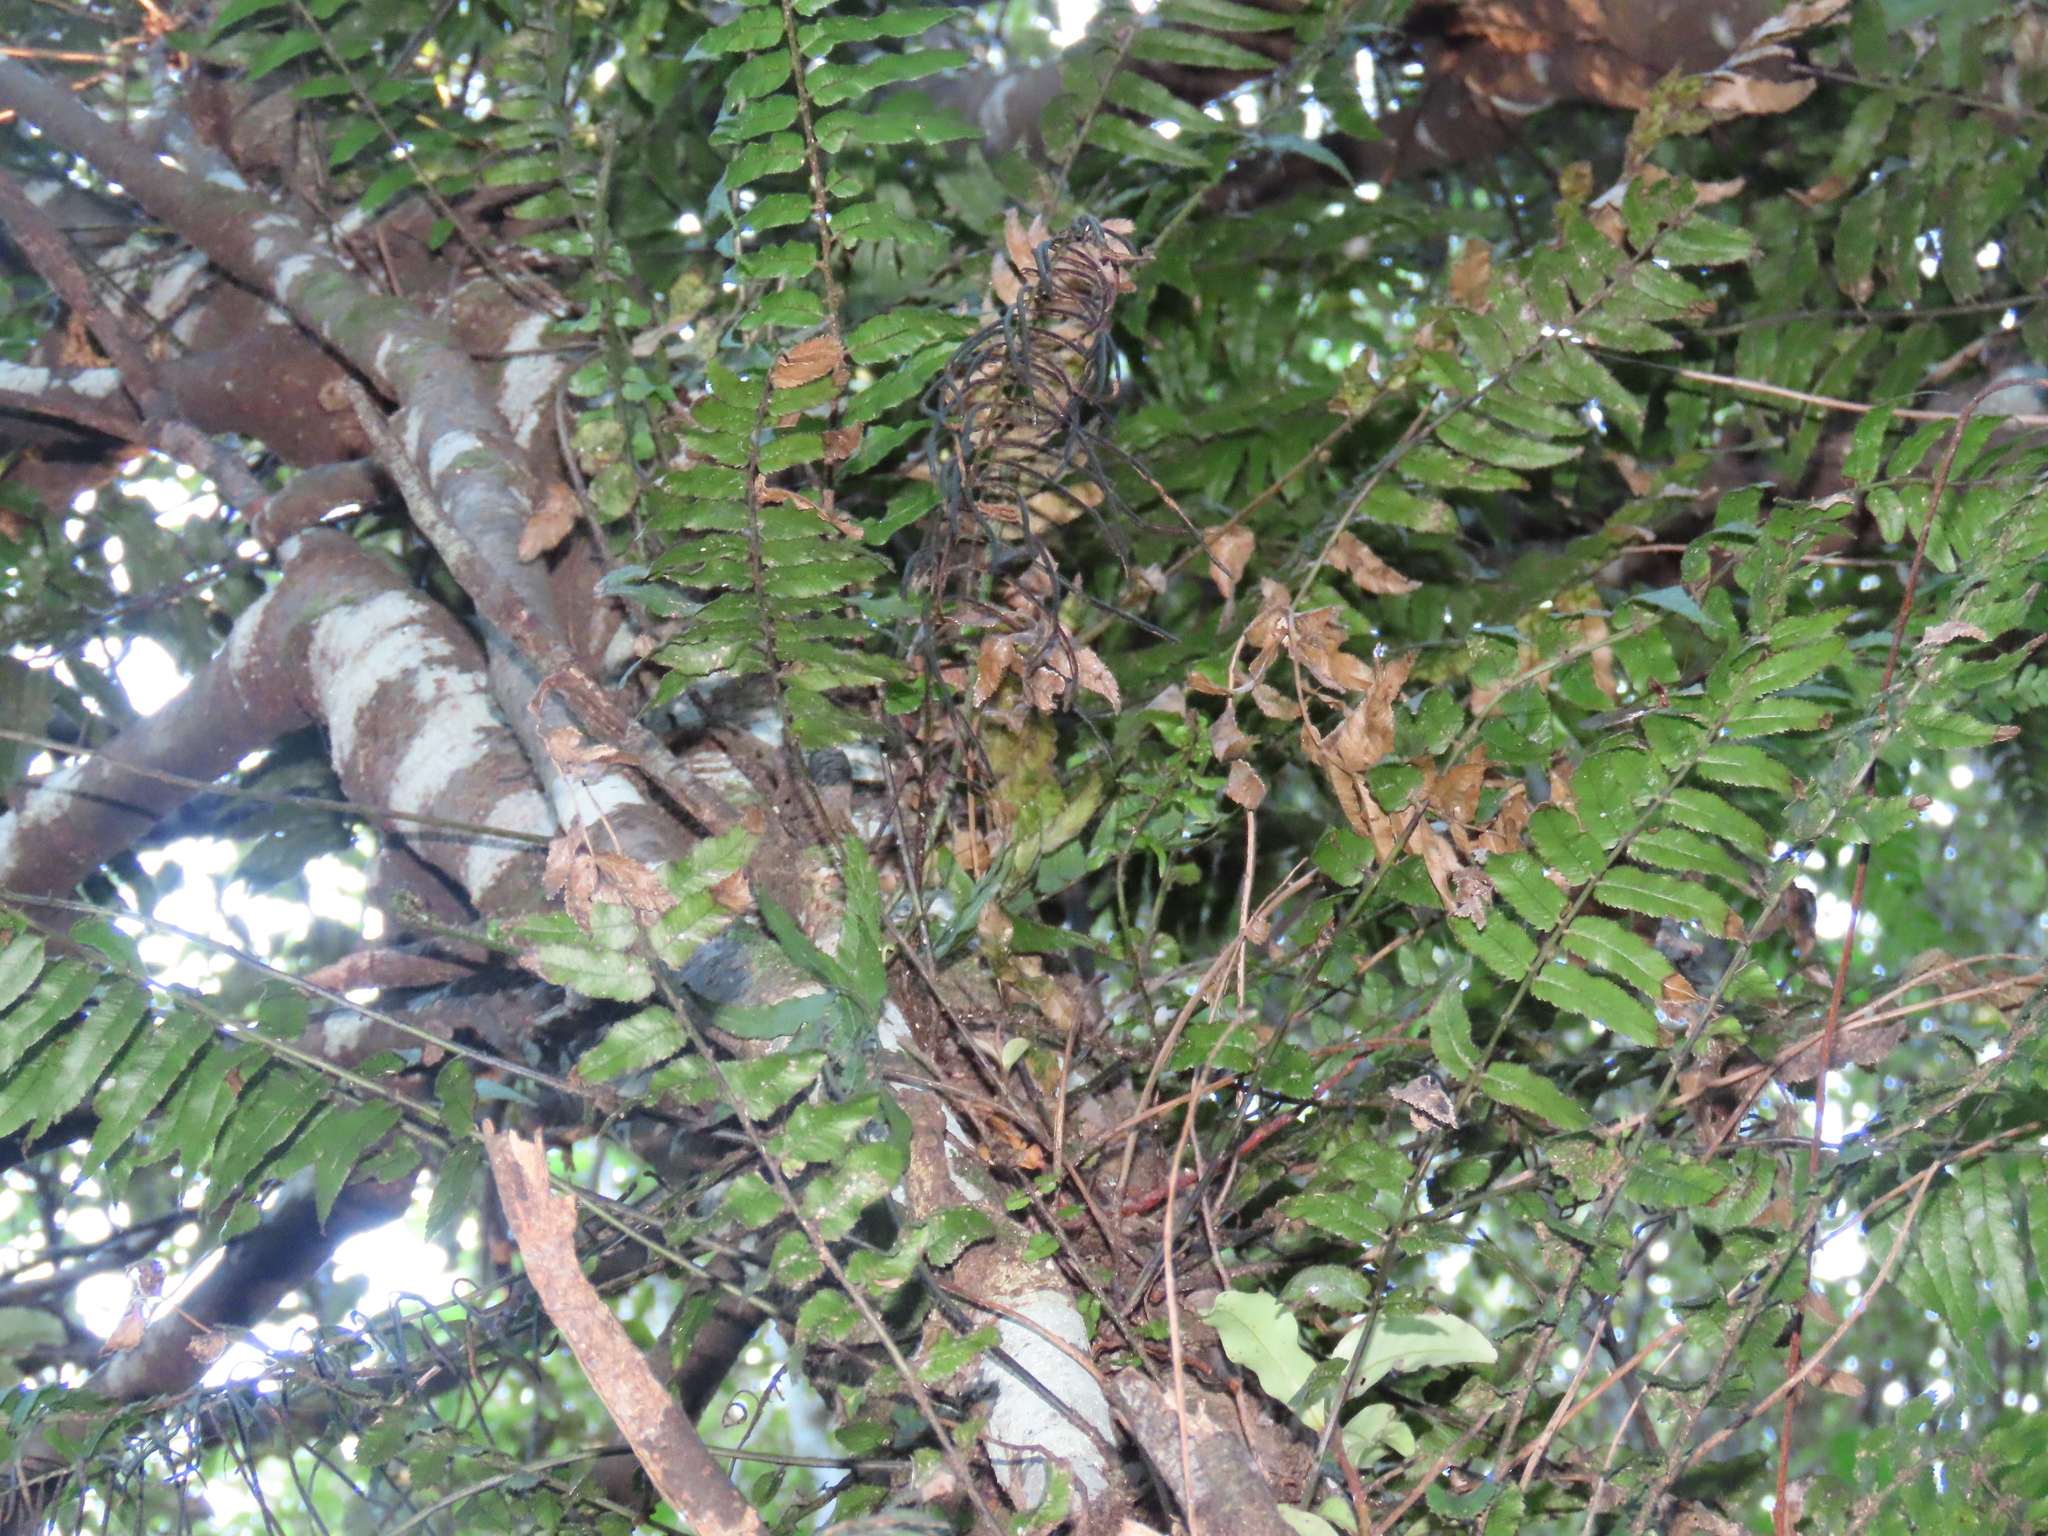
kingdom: Plantae
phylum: Tracheophyta
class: Polypodiopsida
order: Polypodiales
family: Blechnaceae
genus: Icarus
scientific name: Icarus filiformis
